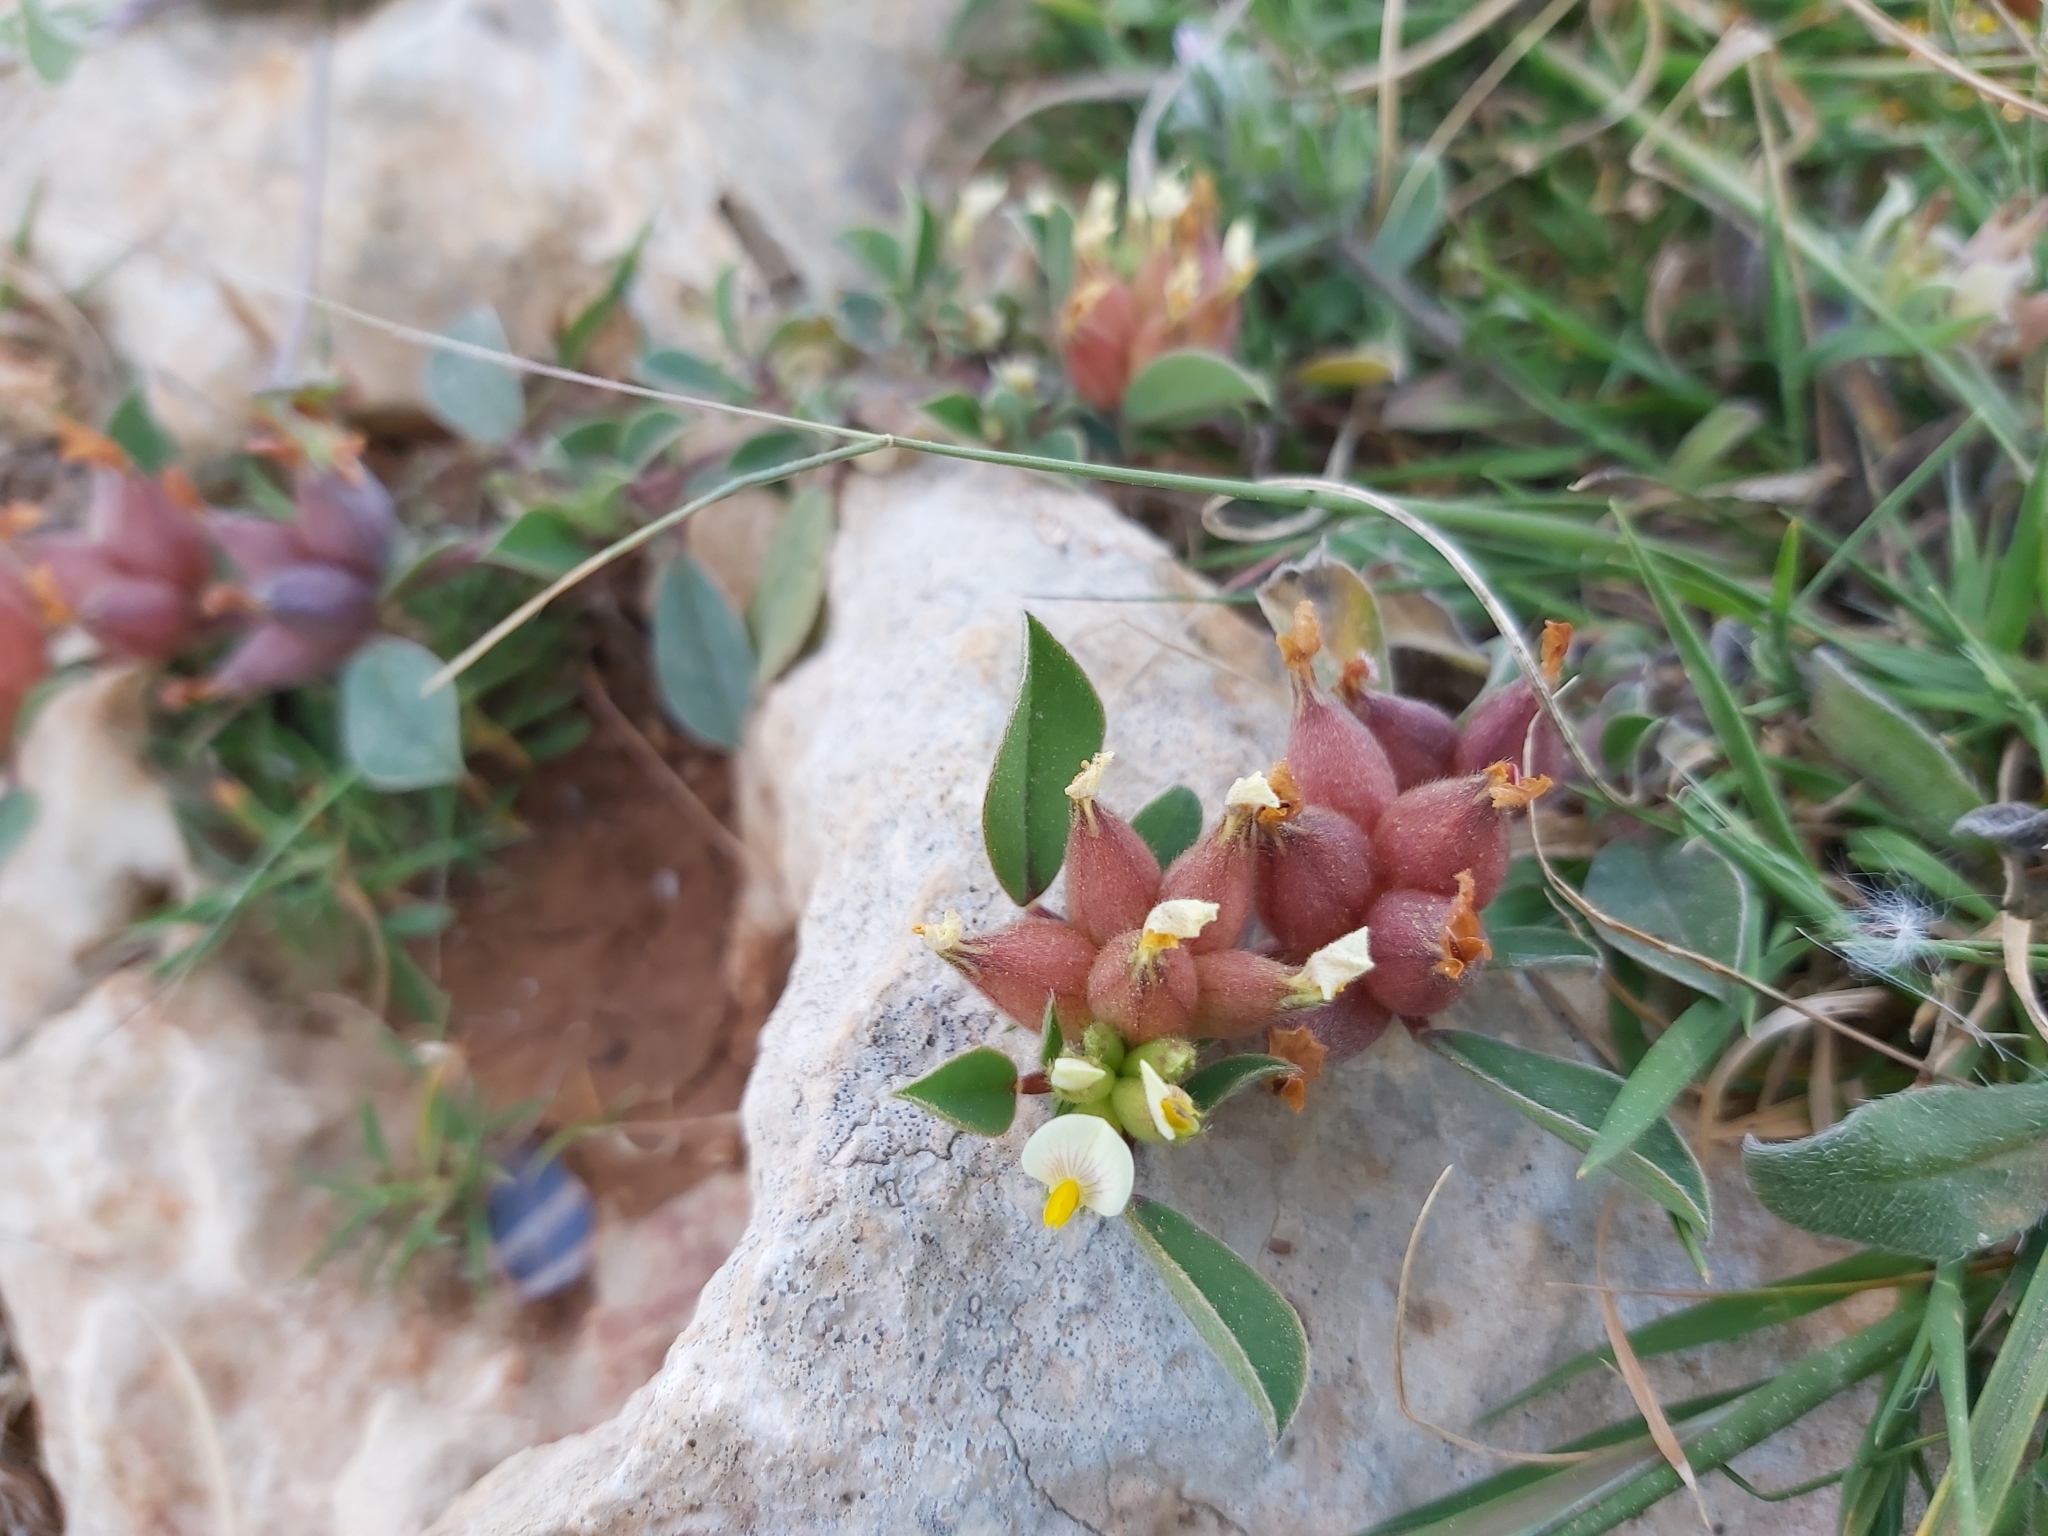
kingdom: Plantae
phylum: Tracheophyta
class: Magnoliopsida
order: Fabales
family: Fabaceae
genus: Tripodion
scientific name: Tripodion tetraphyllum
